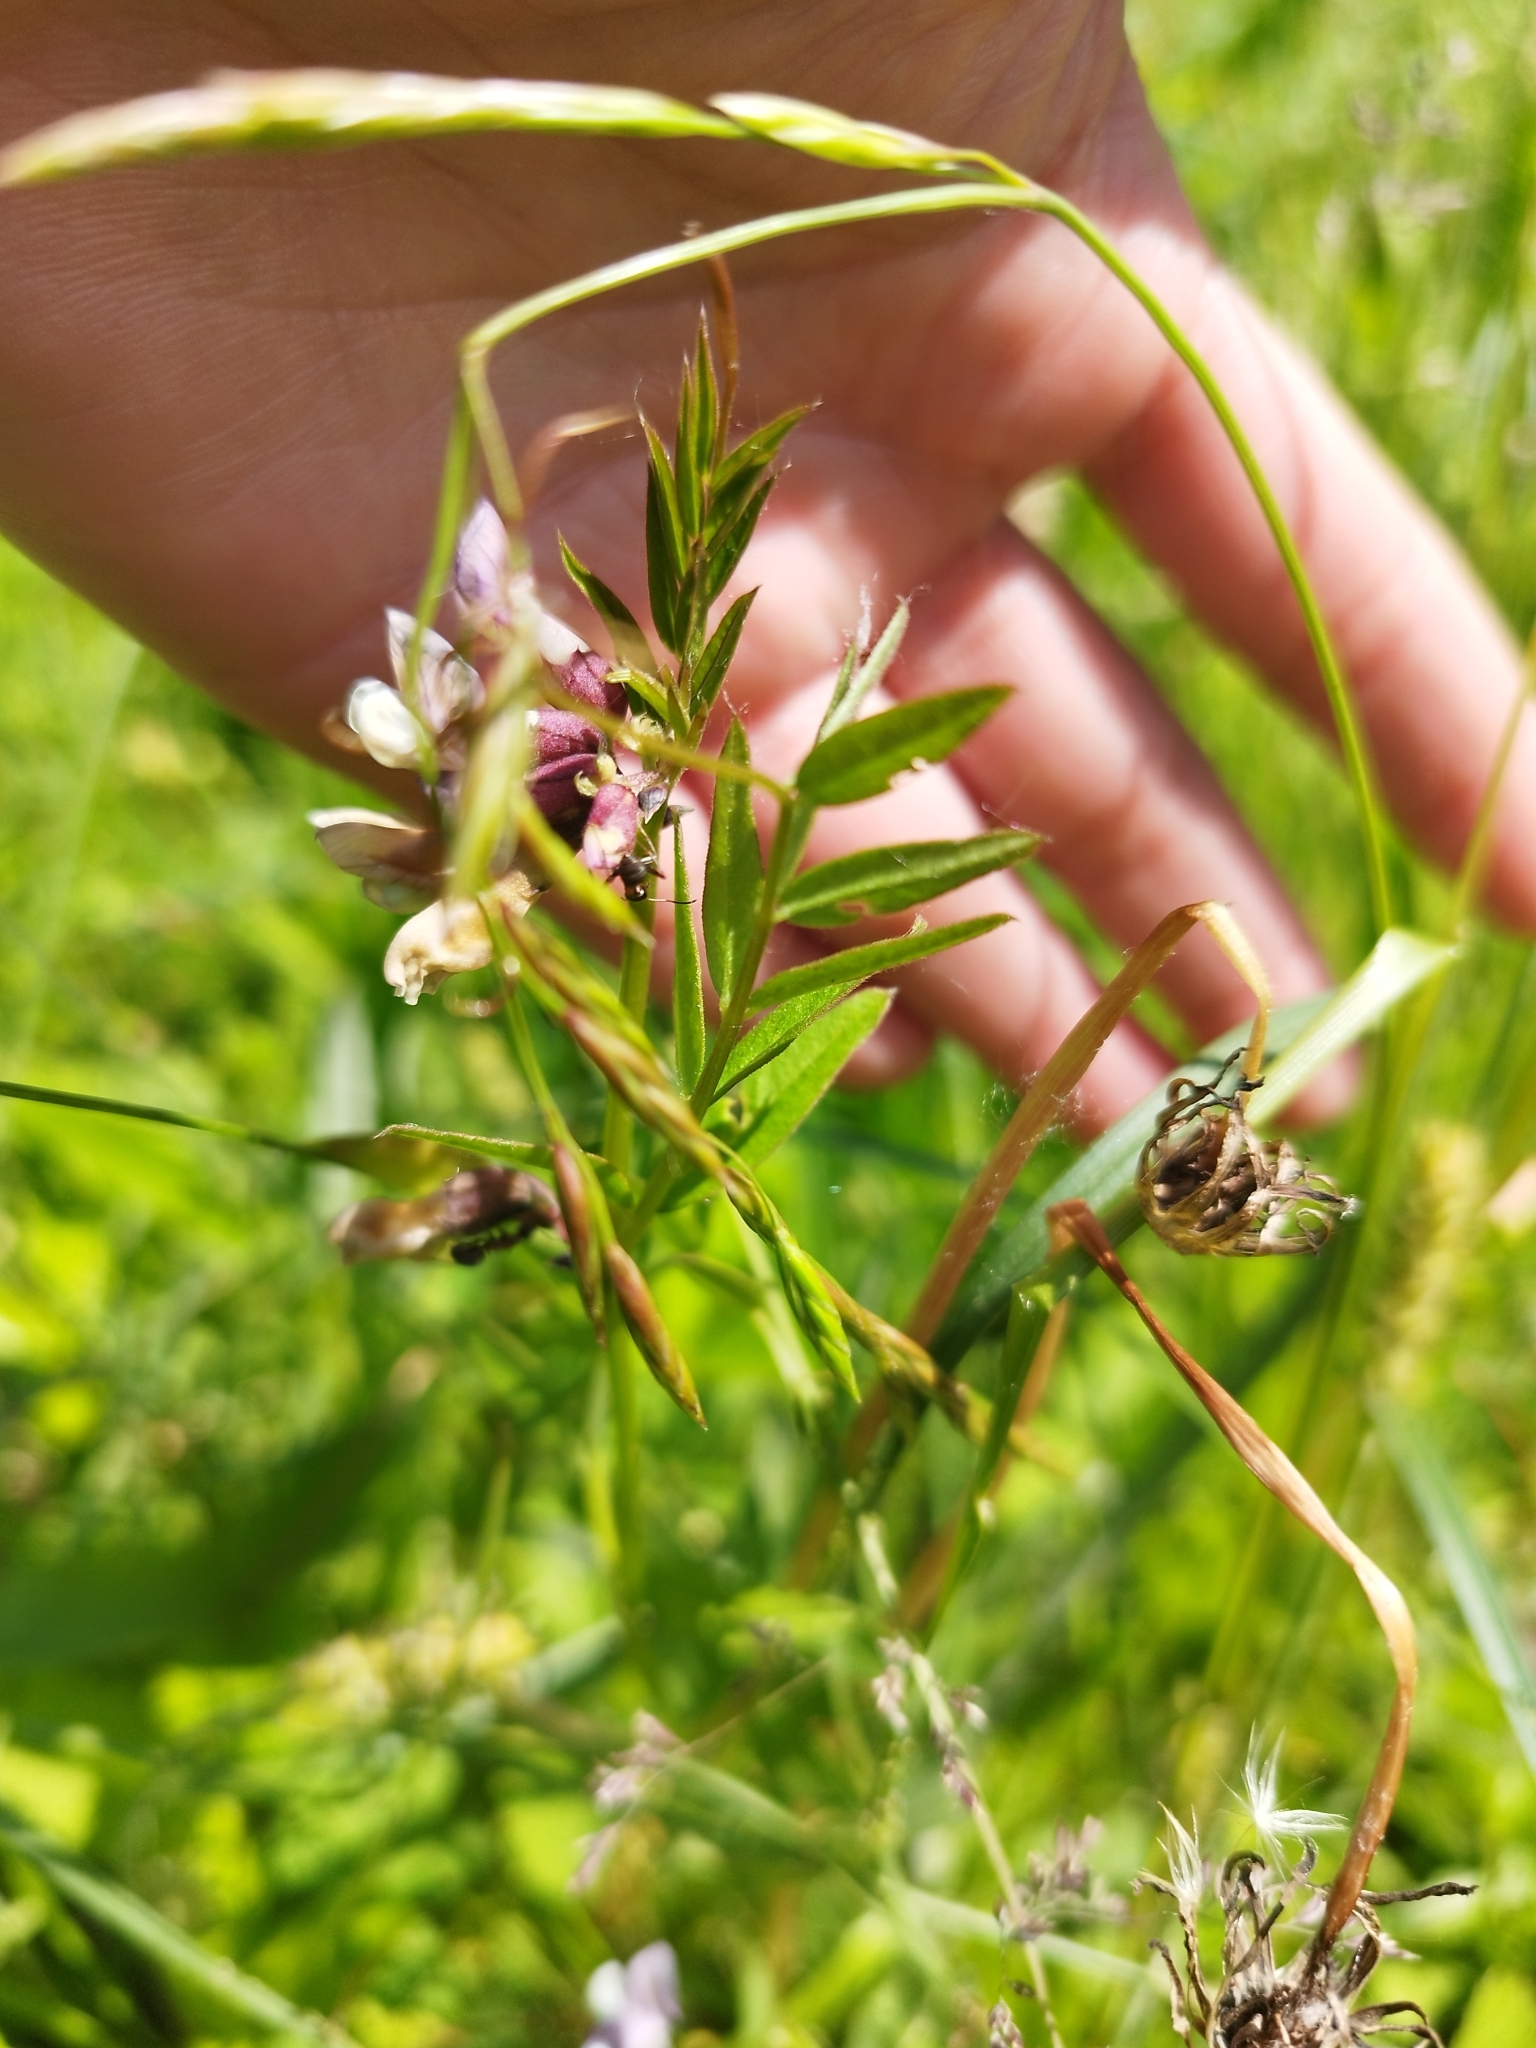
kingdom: Plantae
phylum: Tracheophyta
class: Magnoliopsida
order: Fabales
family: Fabaceae
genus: Vicia
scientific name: Vicia sepium
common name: Bush vetch
